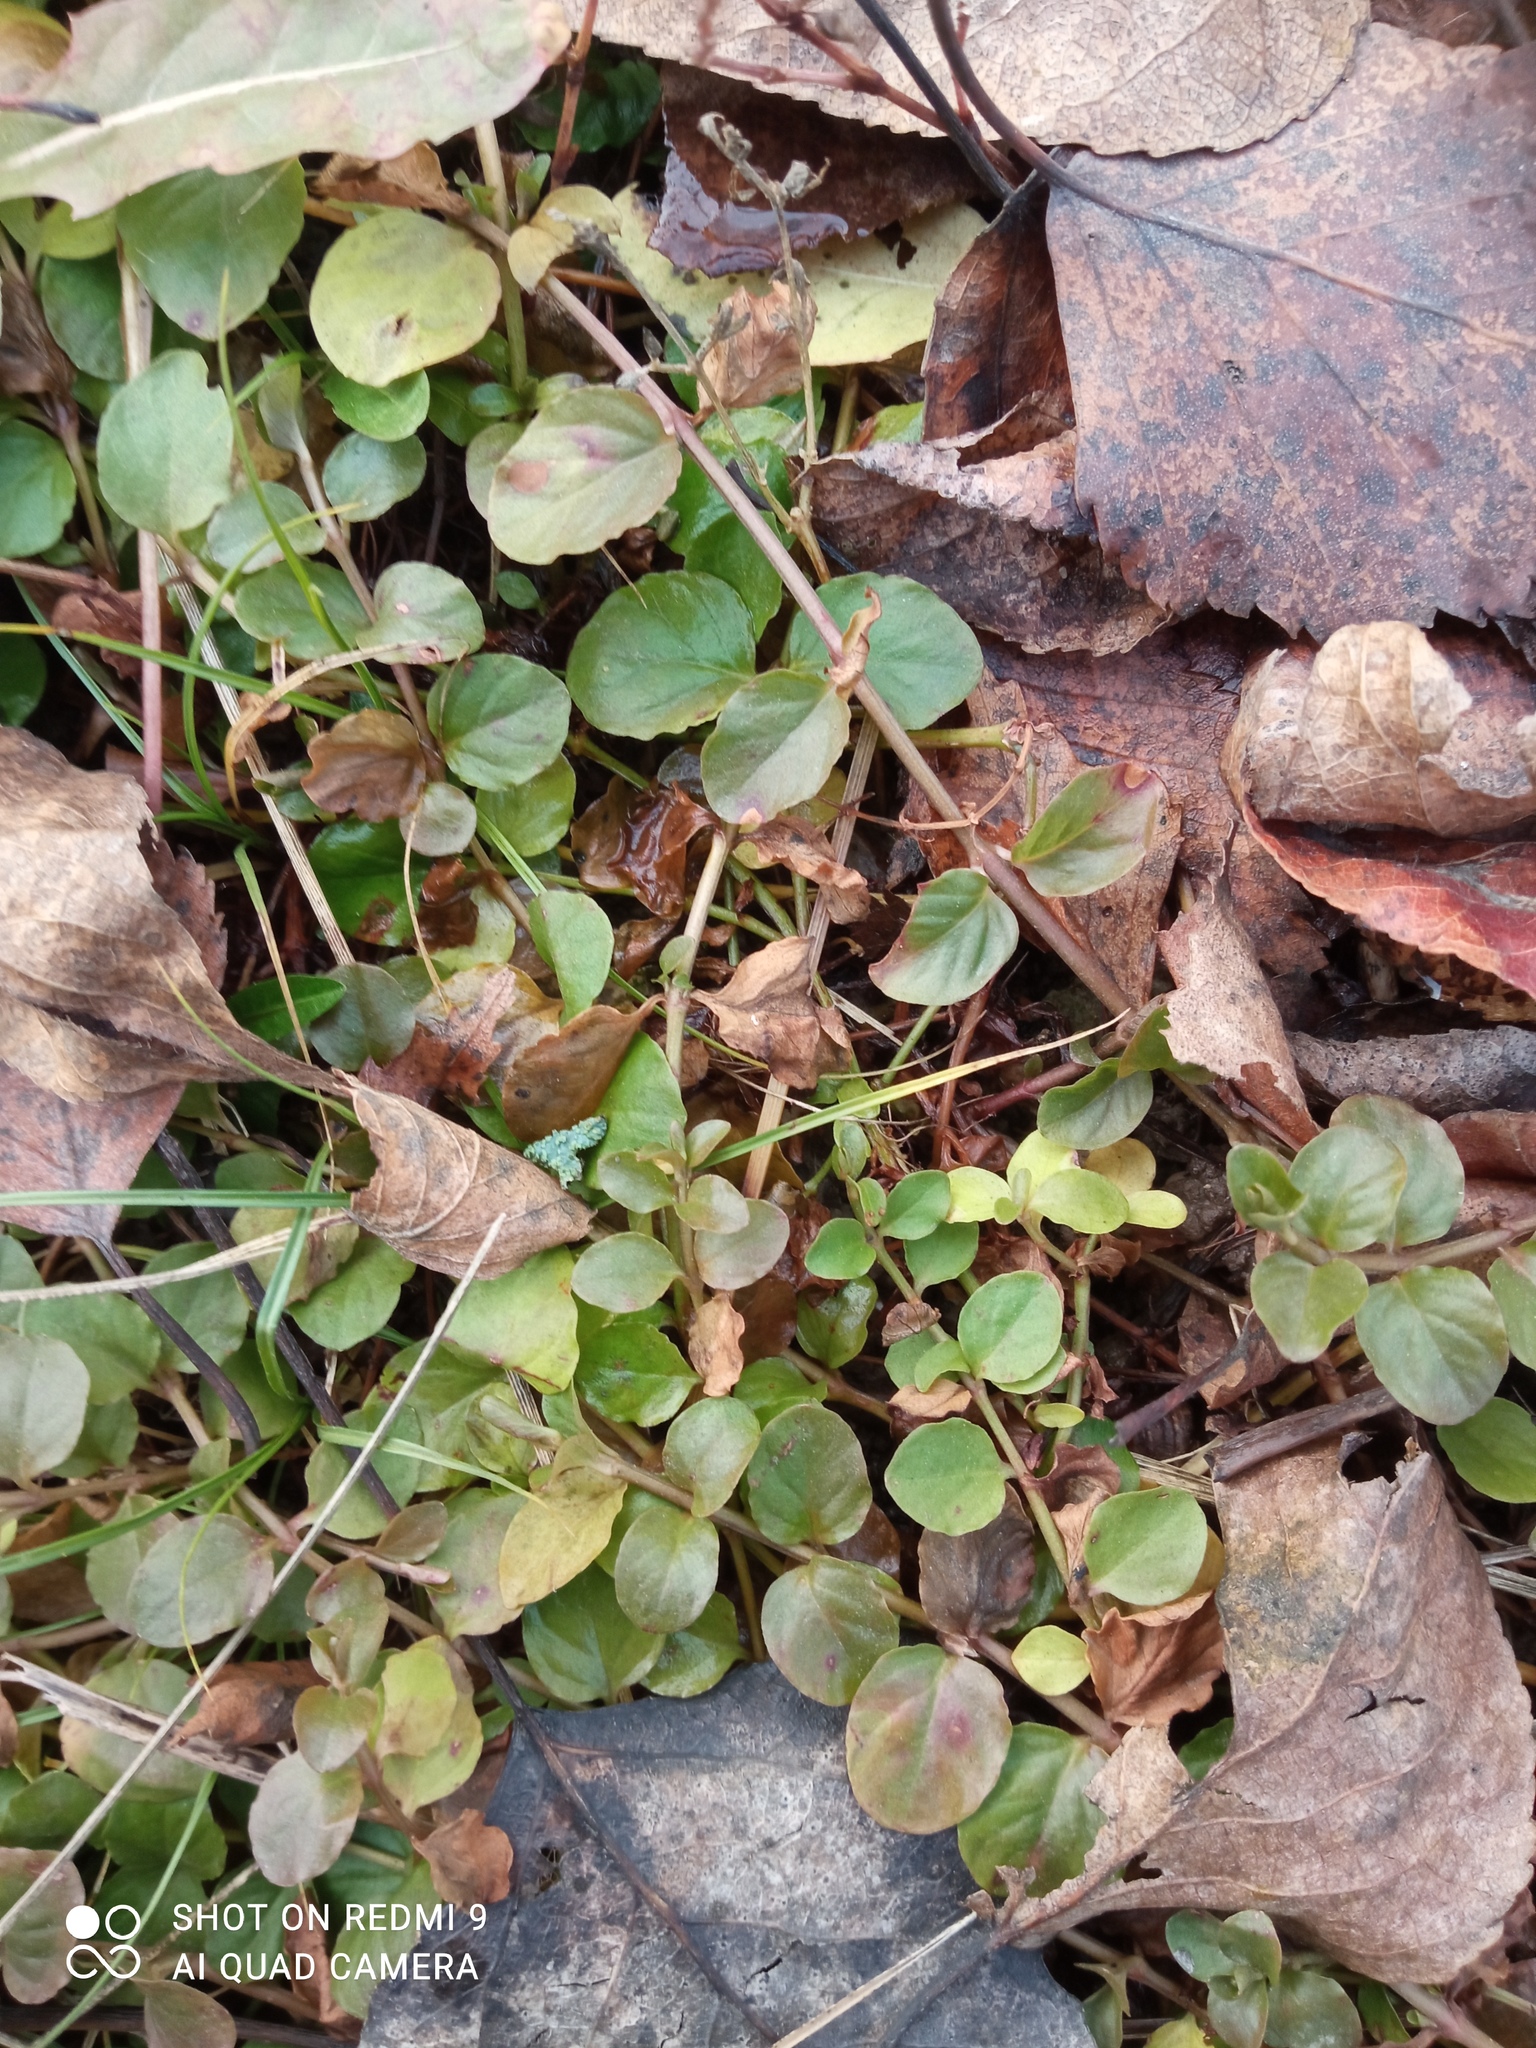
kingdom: Plantae
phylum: Tracheophyta
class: Magnoliopsida
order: Ericales
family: Primulaceae
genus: Lysimachia
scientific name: Lysimachia nummularia
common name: Moneywort
